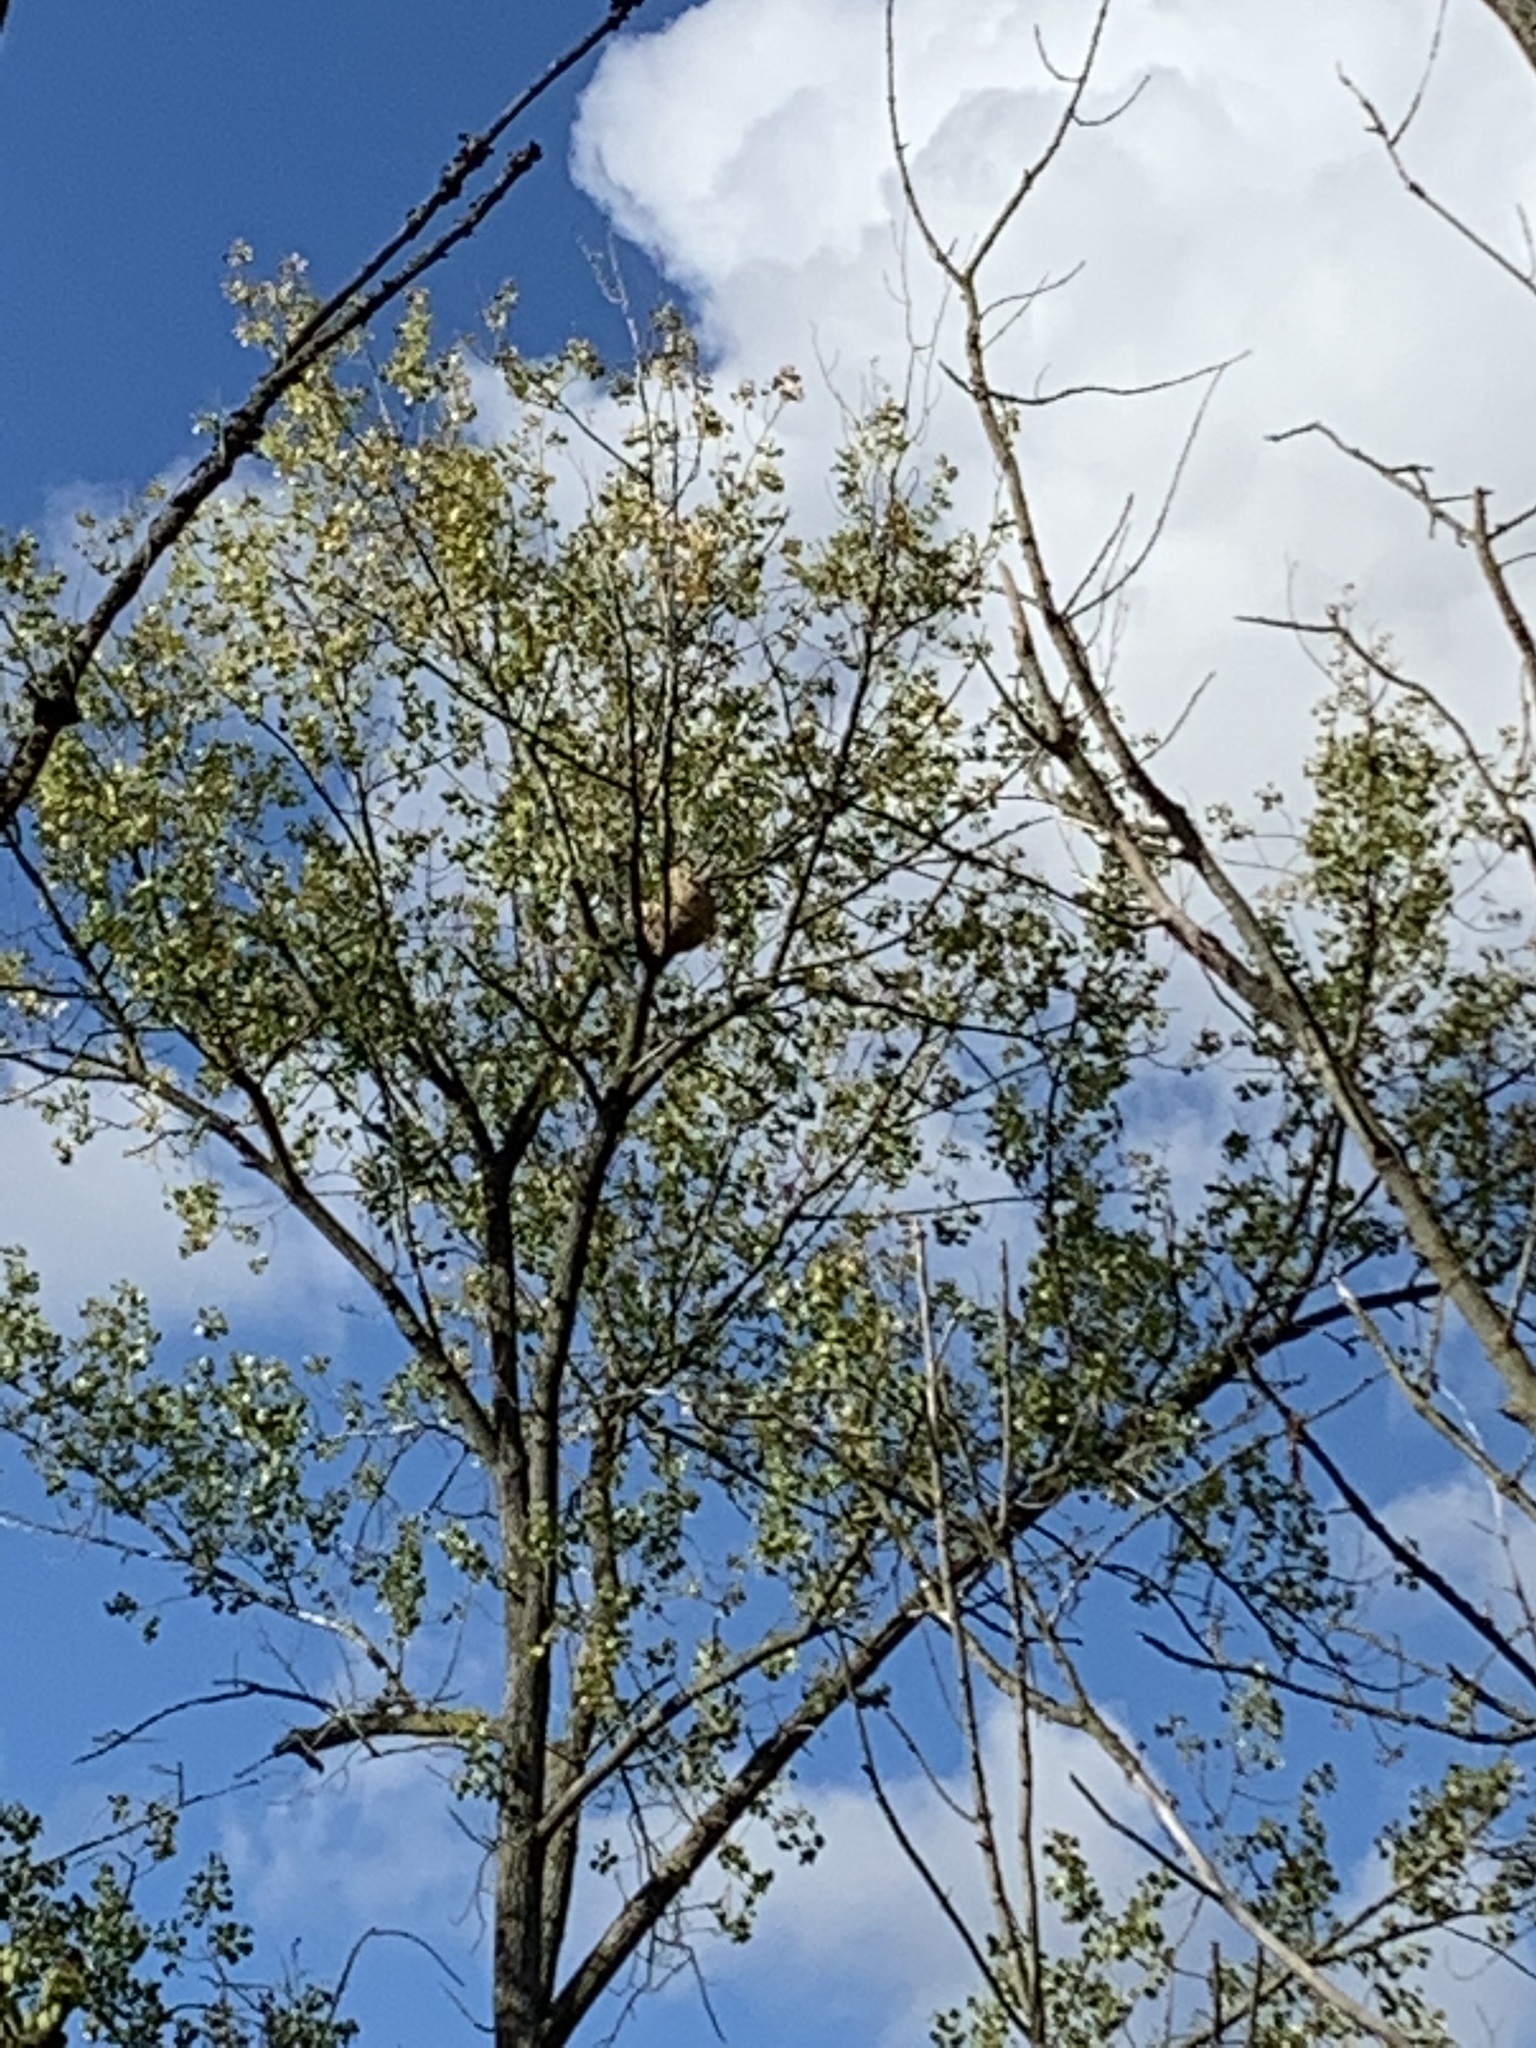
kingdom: Animalia
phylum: Arthropoda
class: Insecta
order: Hymenoptera
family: Vespidae
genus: Vespa
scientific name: Vespa velutina
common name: Asian hornet
